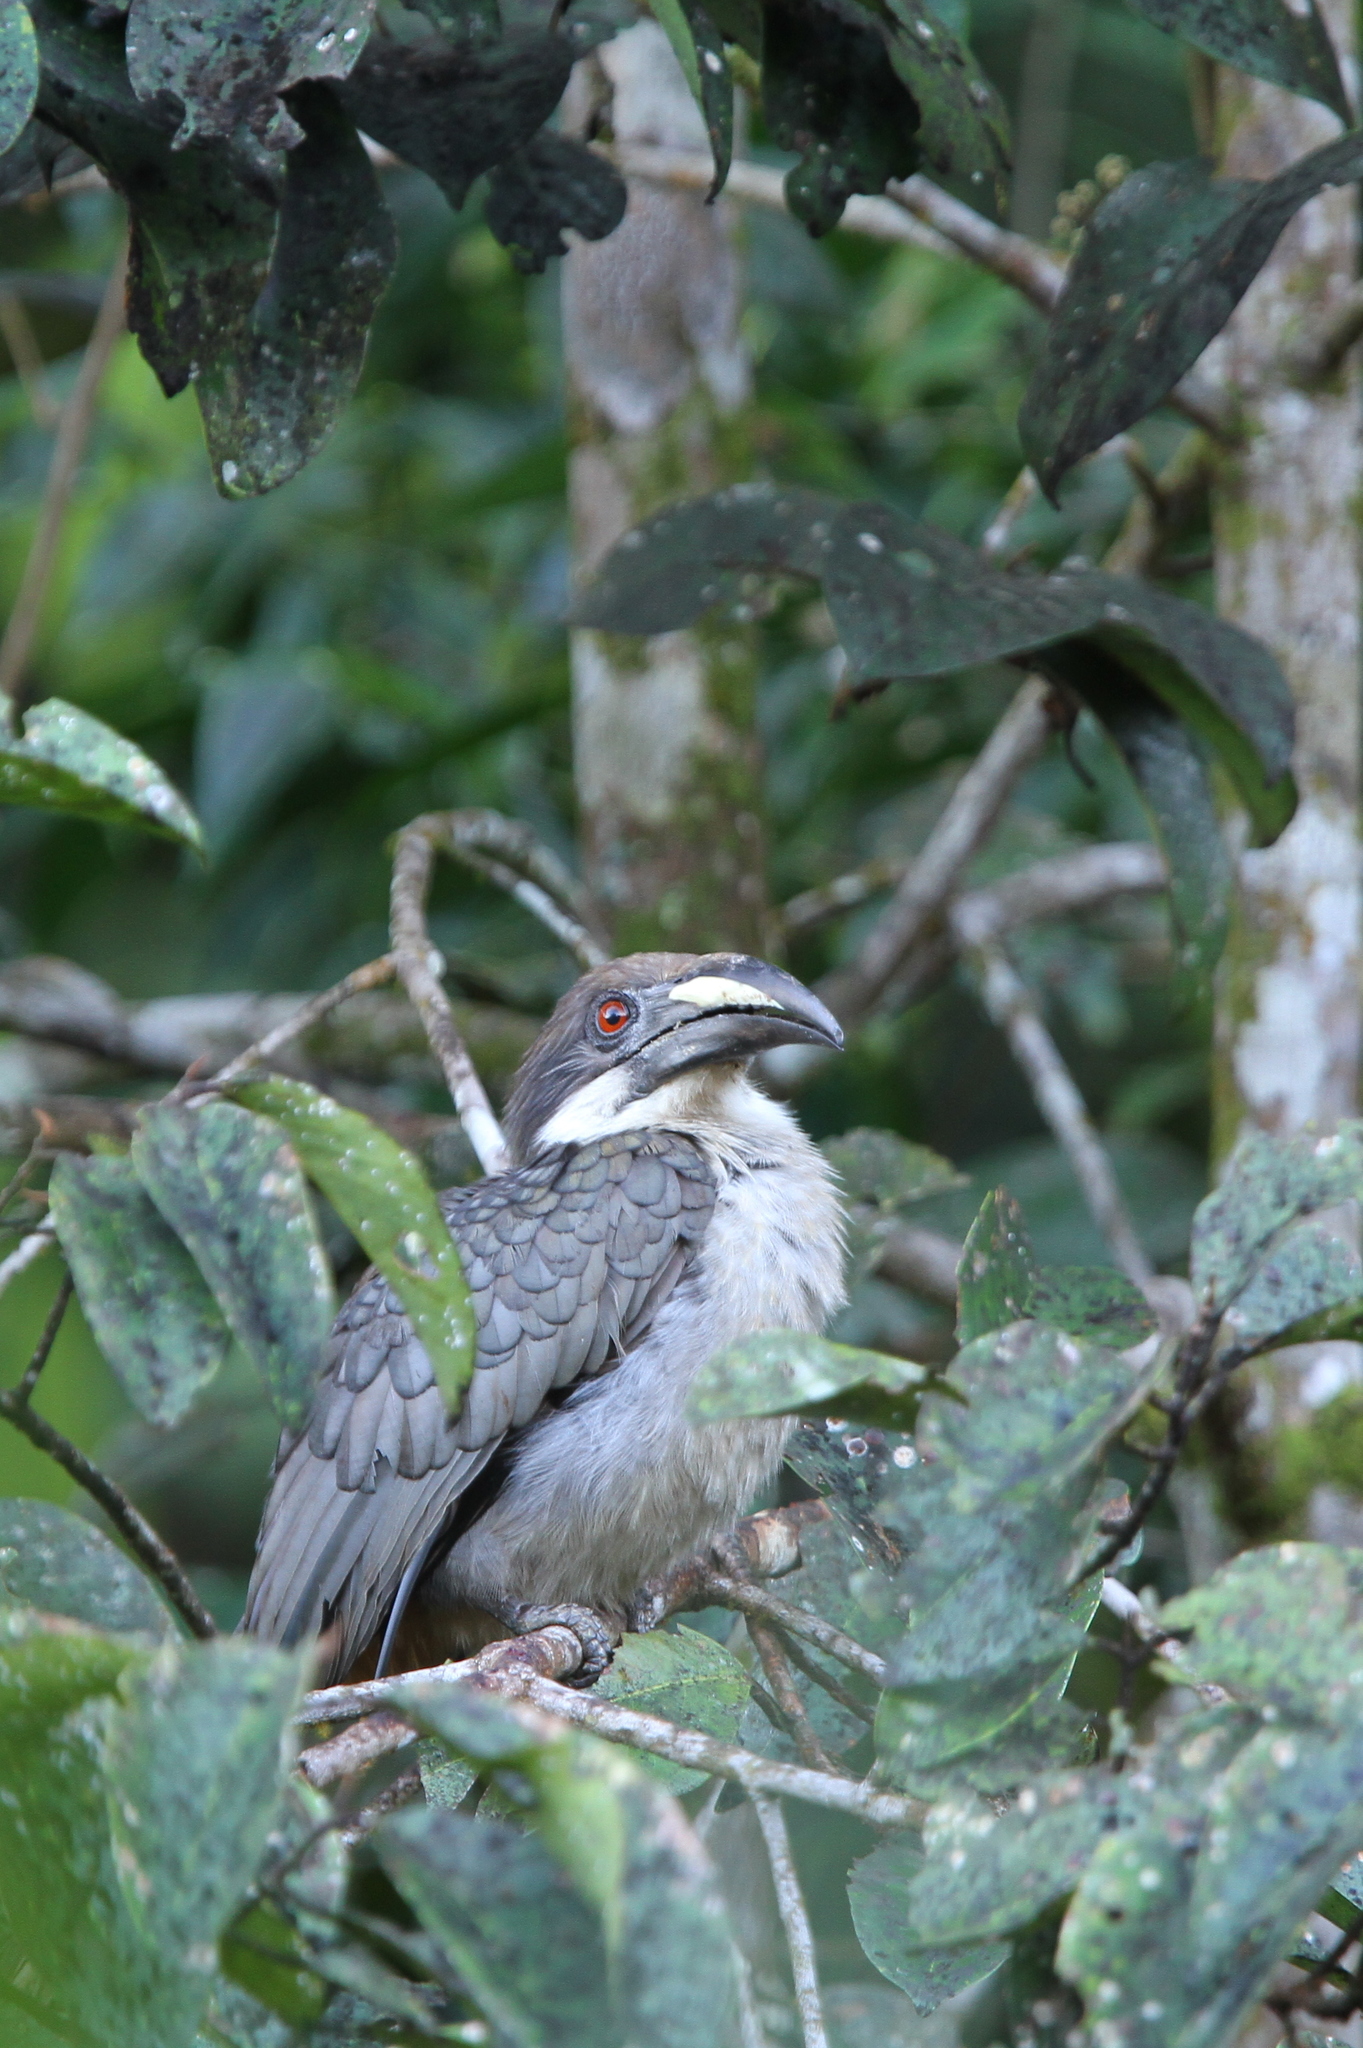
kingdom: Animalia
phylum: Chordata
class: Aves
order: Bucerotiformes
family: Bucerotidae
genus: Ocyceros
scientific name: Ocyceros gingalensis
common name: Sri lanka grey hornbill
